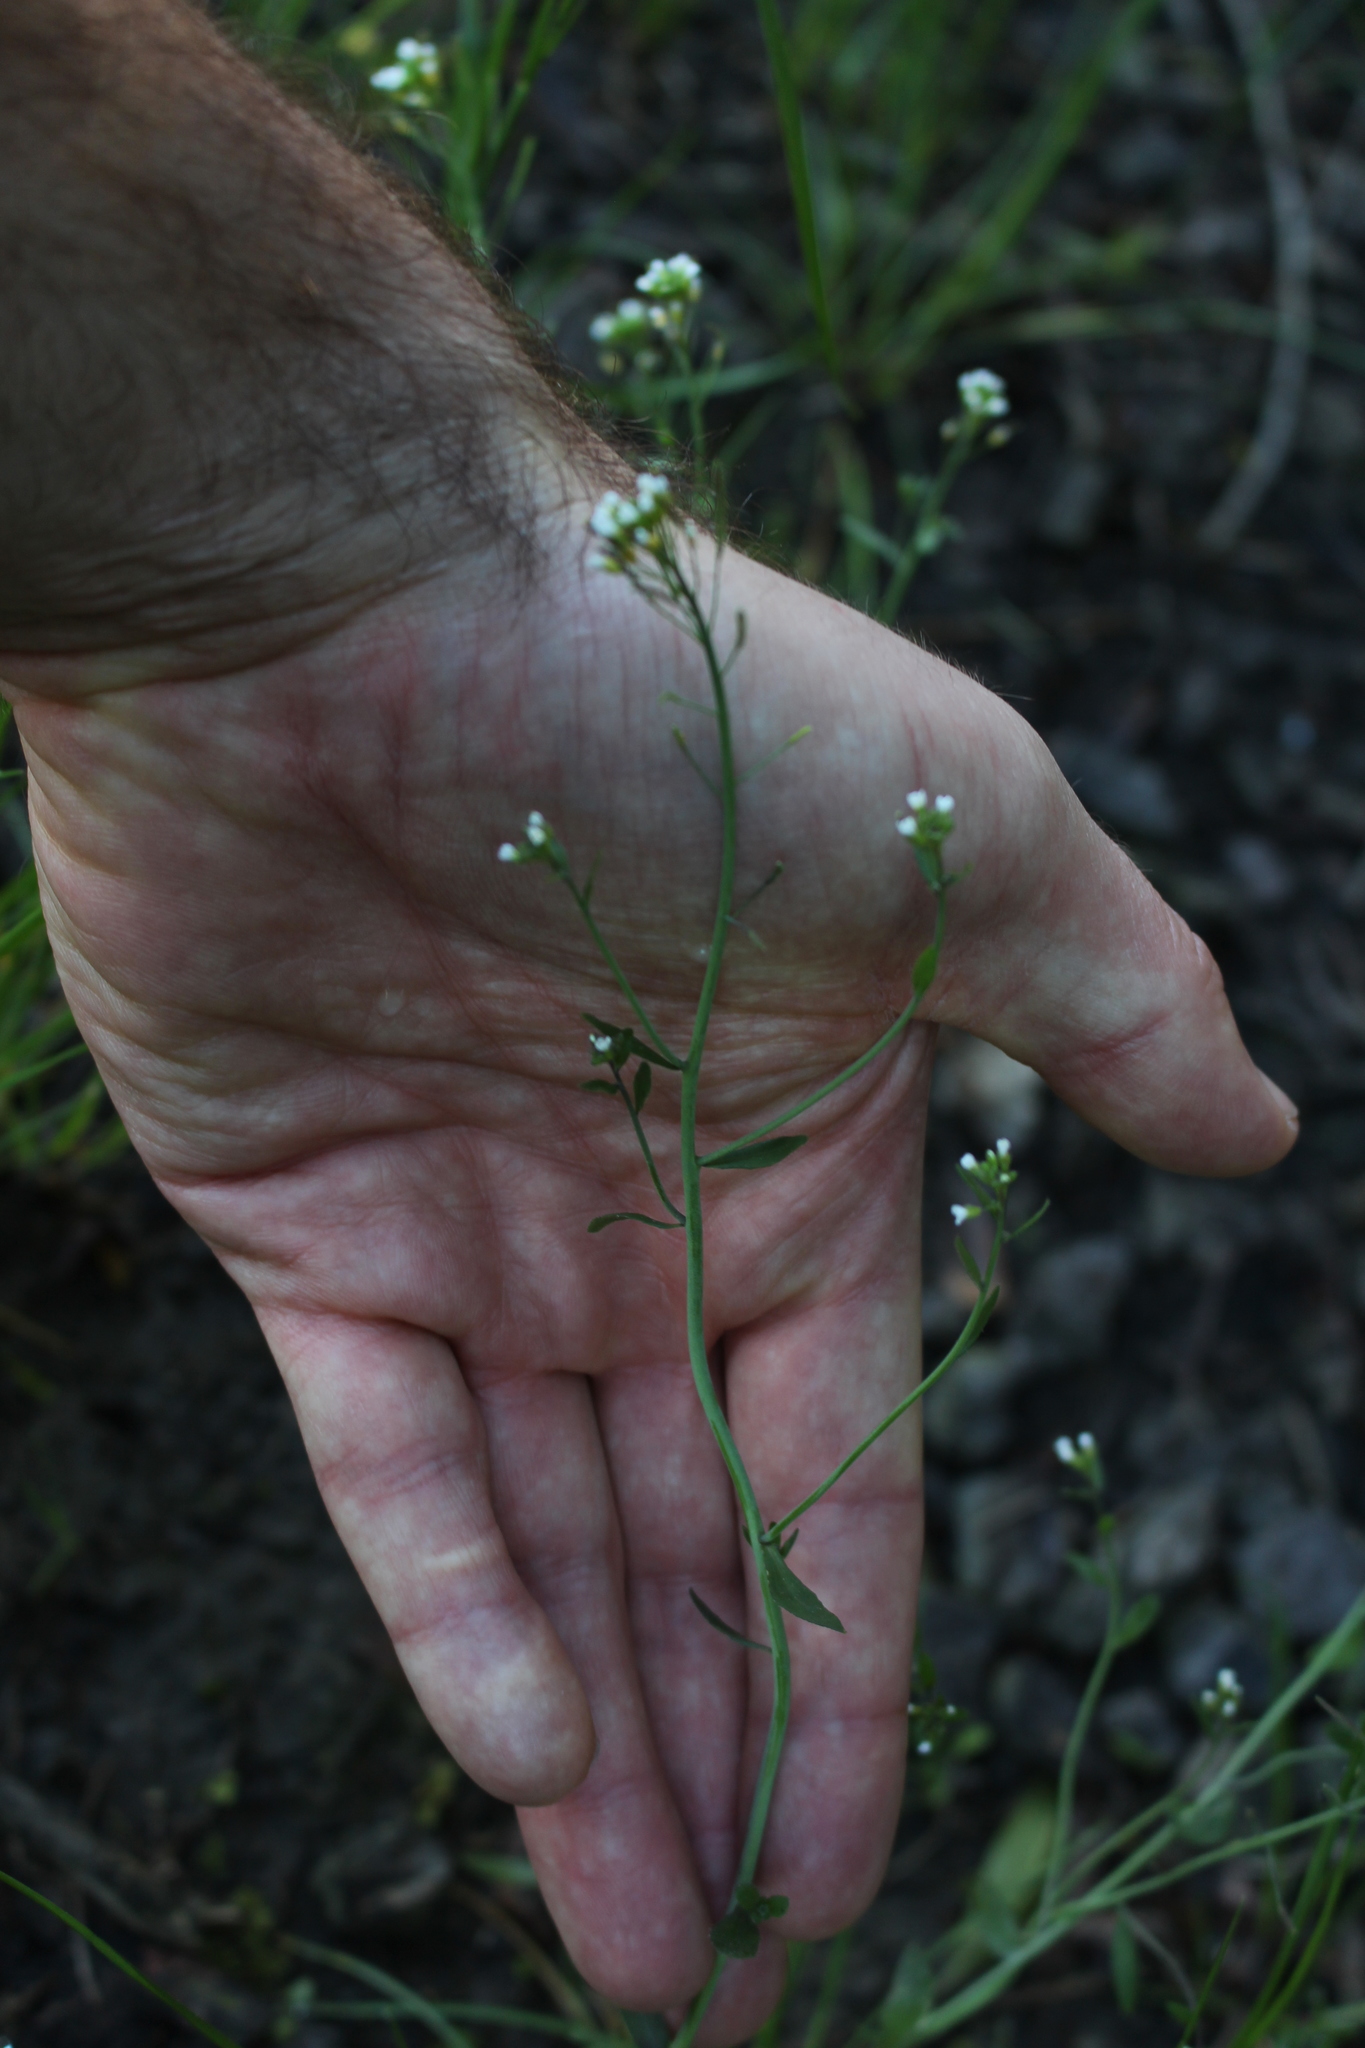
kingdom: Plantae
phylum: Tracheophyta
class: Magnoliopsida
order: Brassicales
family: Brassicaceae
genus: Arabidopsis
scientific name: Arabidopsis thaliana
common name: Thale cress
